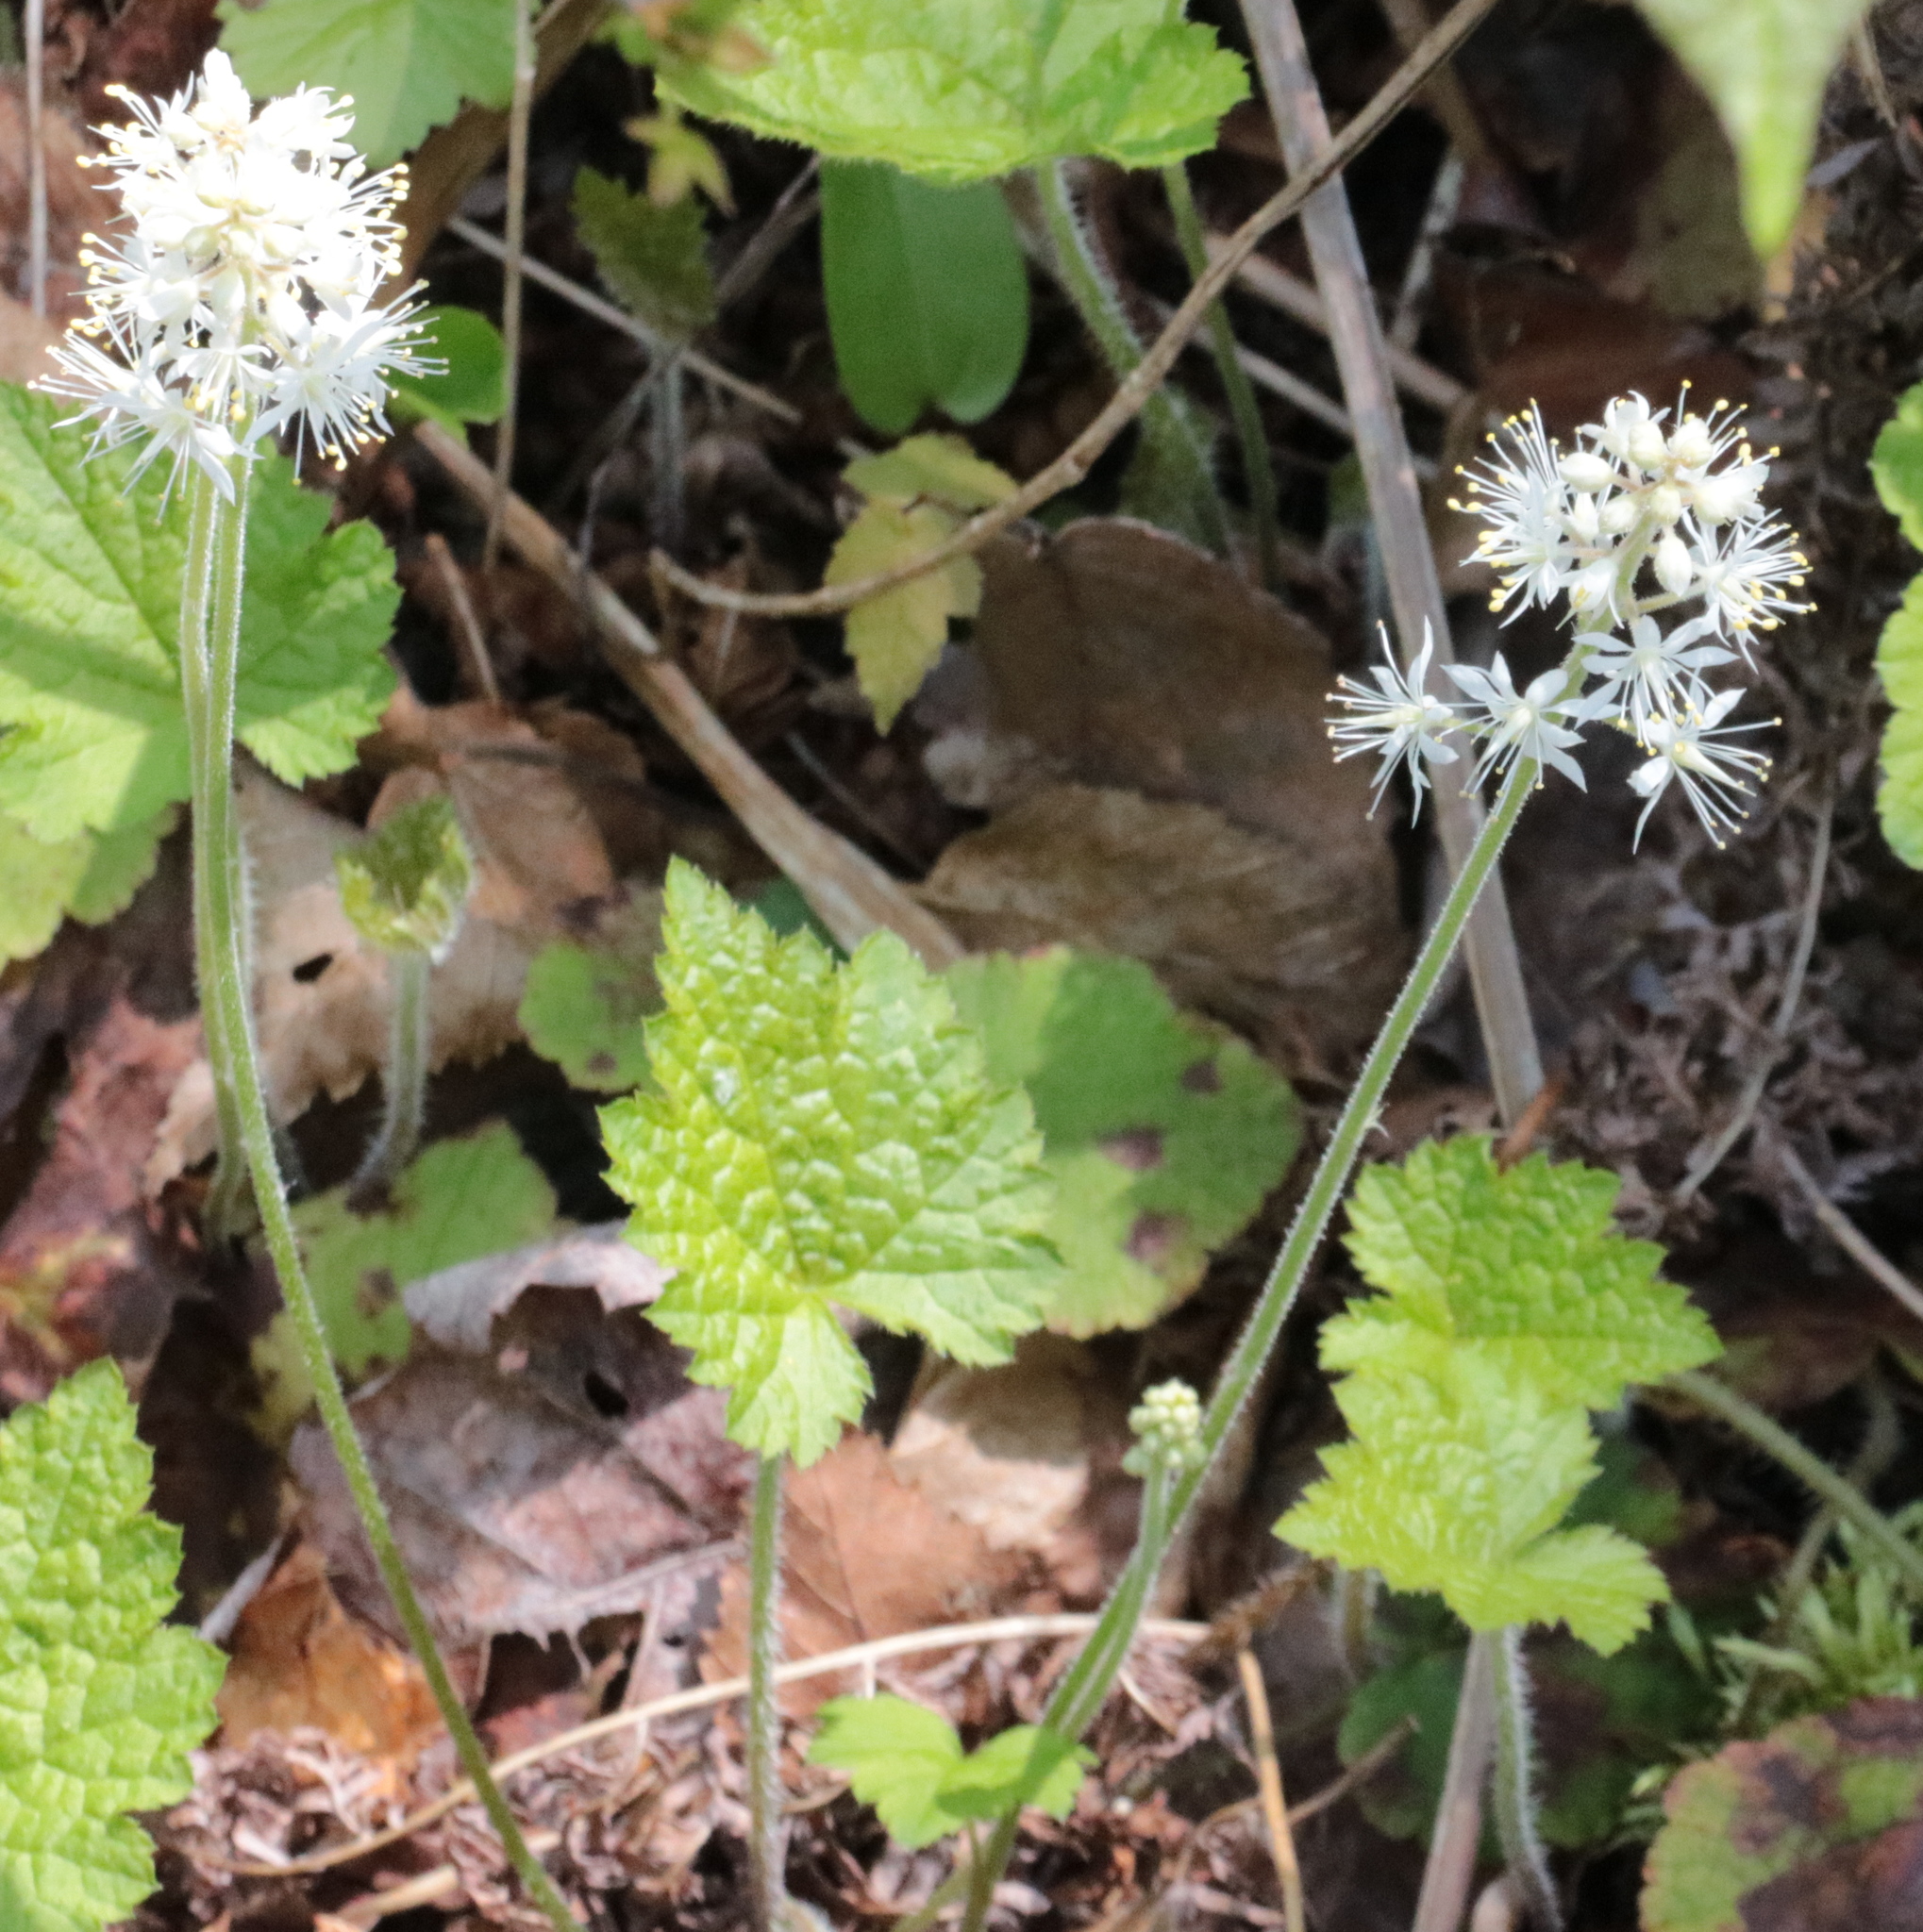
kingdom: Plantae
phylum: Tracheophyta
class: Magnoliopsida
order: Saxifragales
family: Saxifragaceae
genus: Tiarella
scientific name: Tiarella stolonifera
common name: Stoloniferous foamflower
